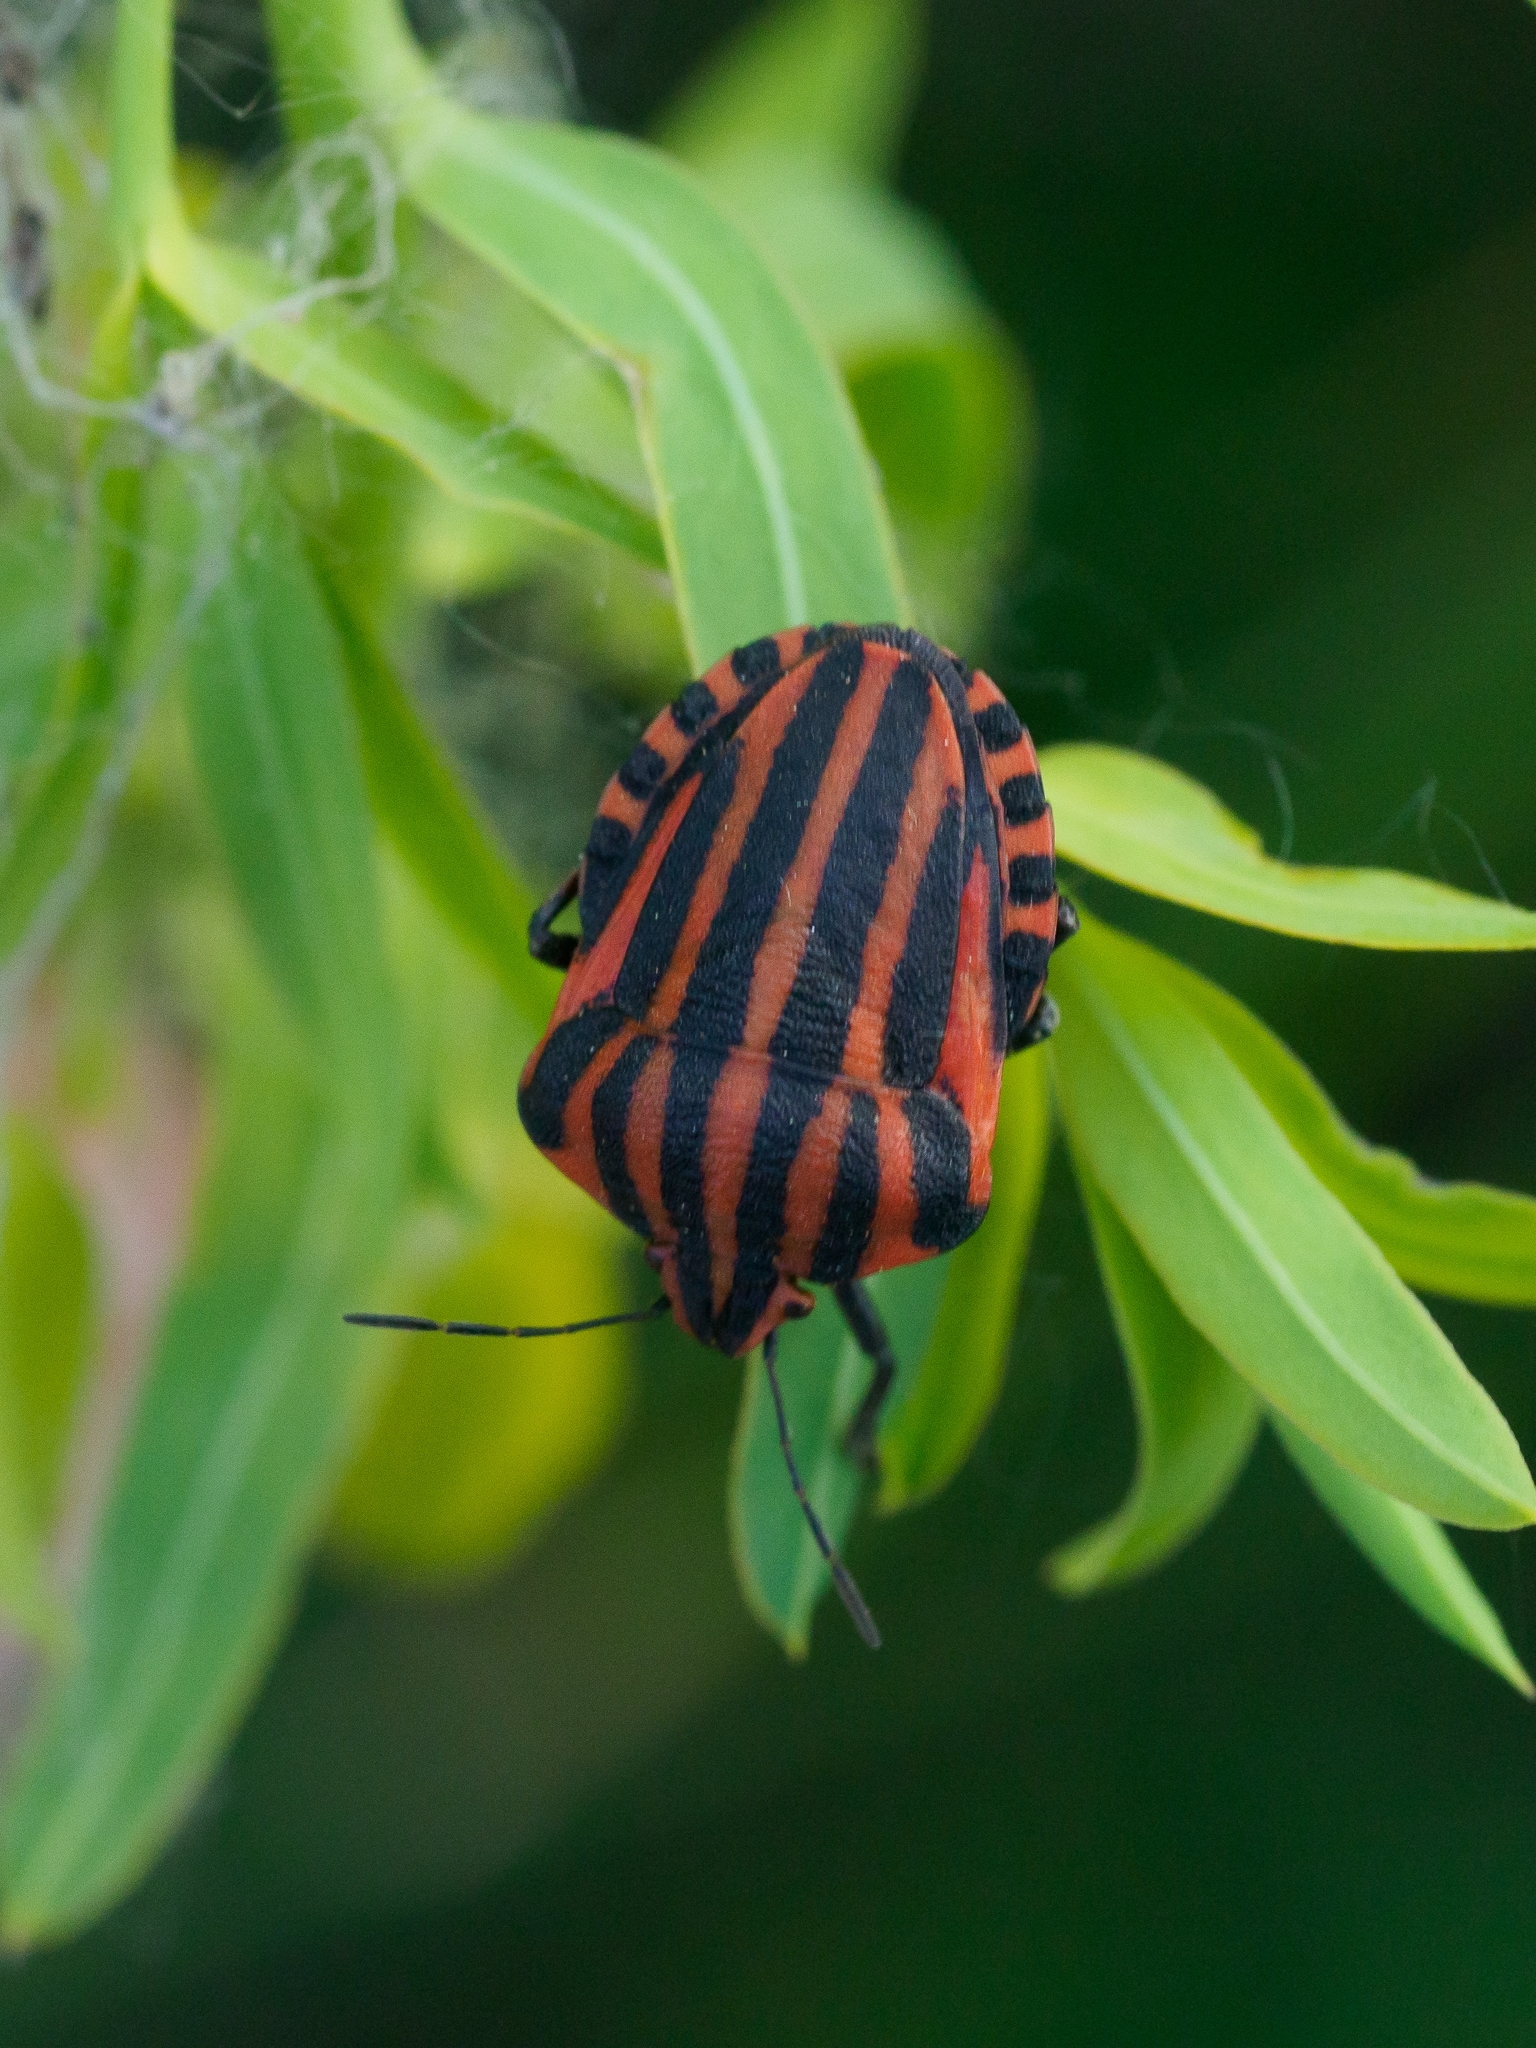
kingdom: Animalia
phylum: Arthropoda
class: Insecta
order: Hemiptera
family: Pentatomidae
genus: Graphosoma
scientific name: Graphosoma italicum
